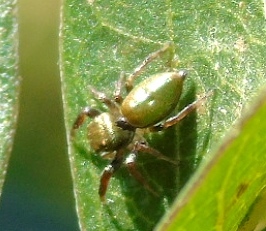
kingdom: Animalia
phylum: Arthropoda
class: Arachnida
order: Araneae
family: Salticidae
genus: Messua
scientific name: Messua
